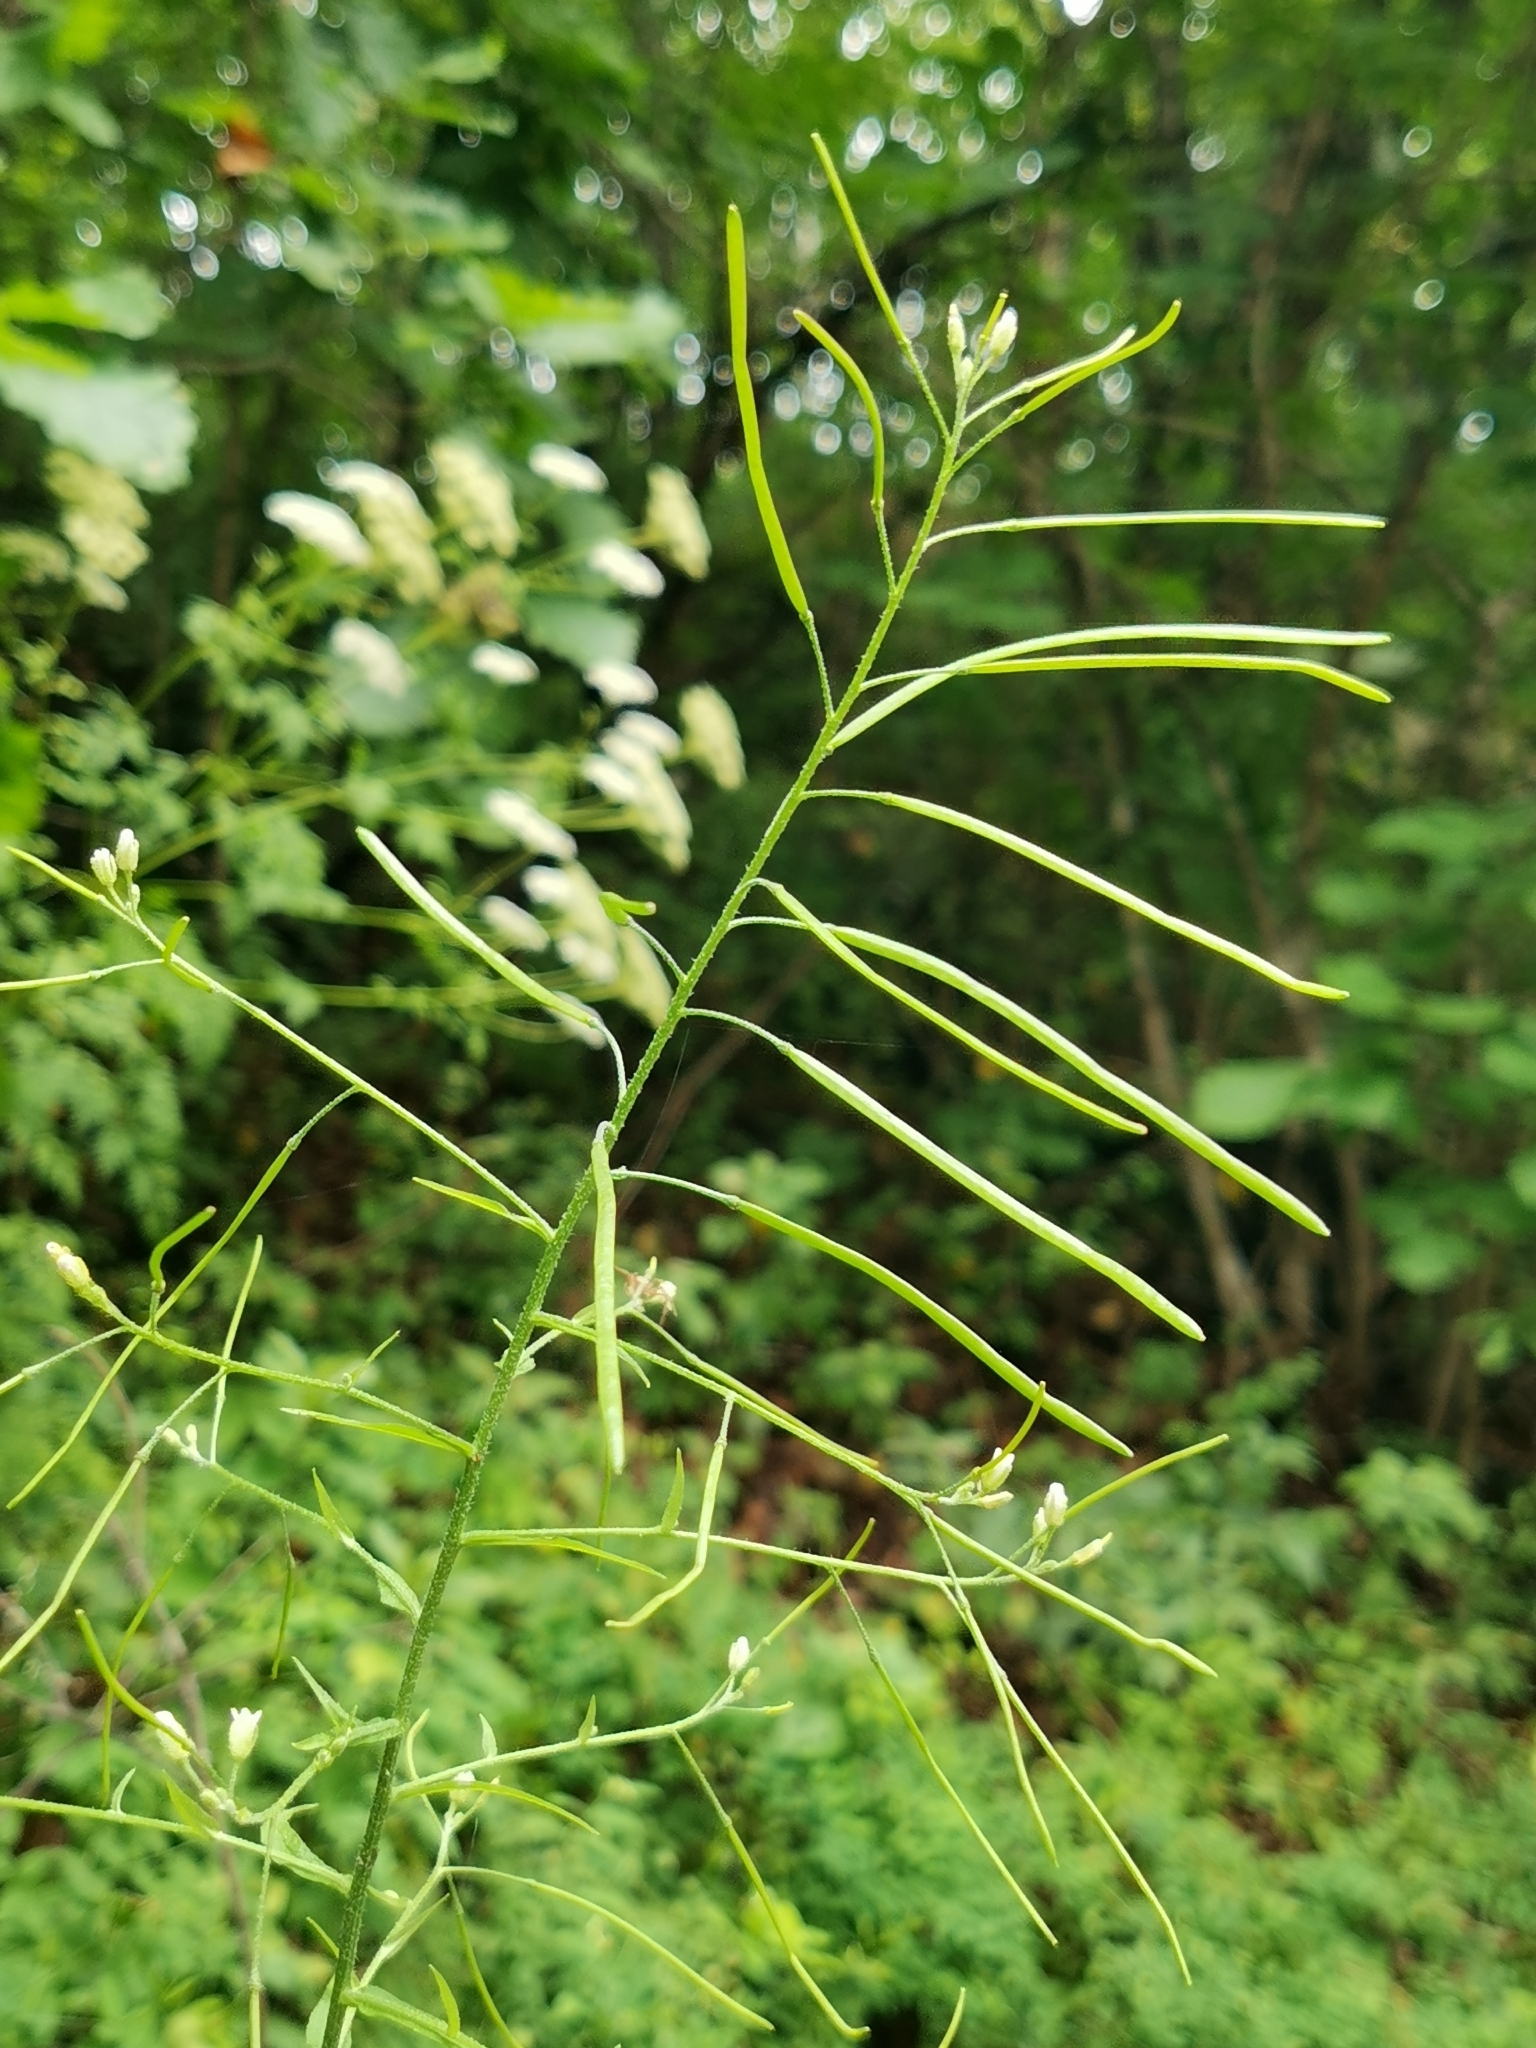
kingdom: Plantae
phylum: Tracheophyta
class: Magnoliopsida
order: Brassicales
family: Brassicaceae
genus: Catolobus
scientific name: Catolobus pendulus
